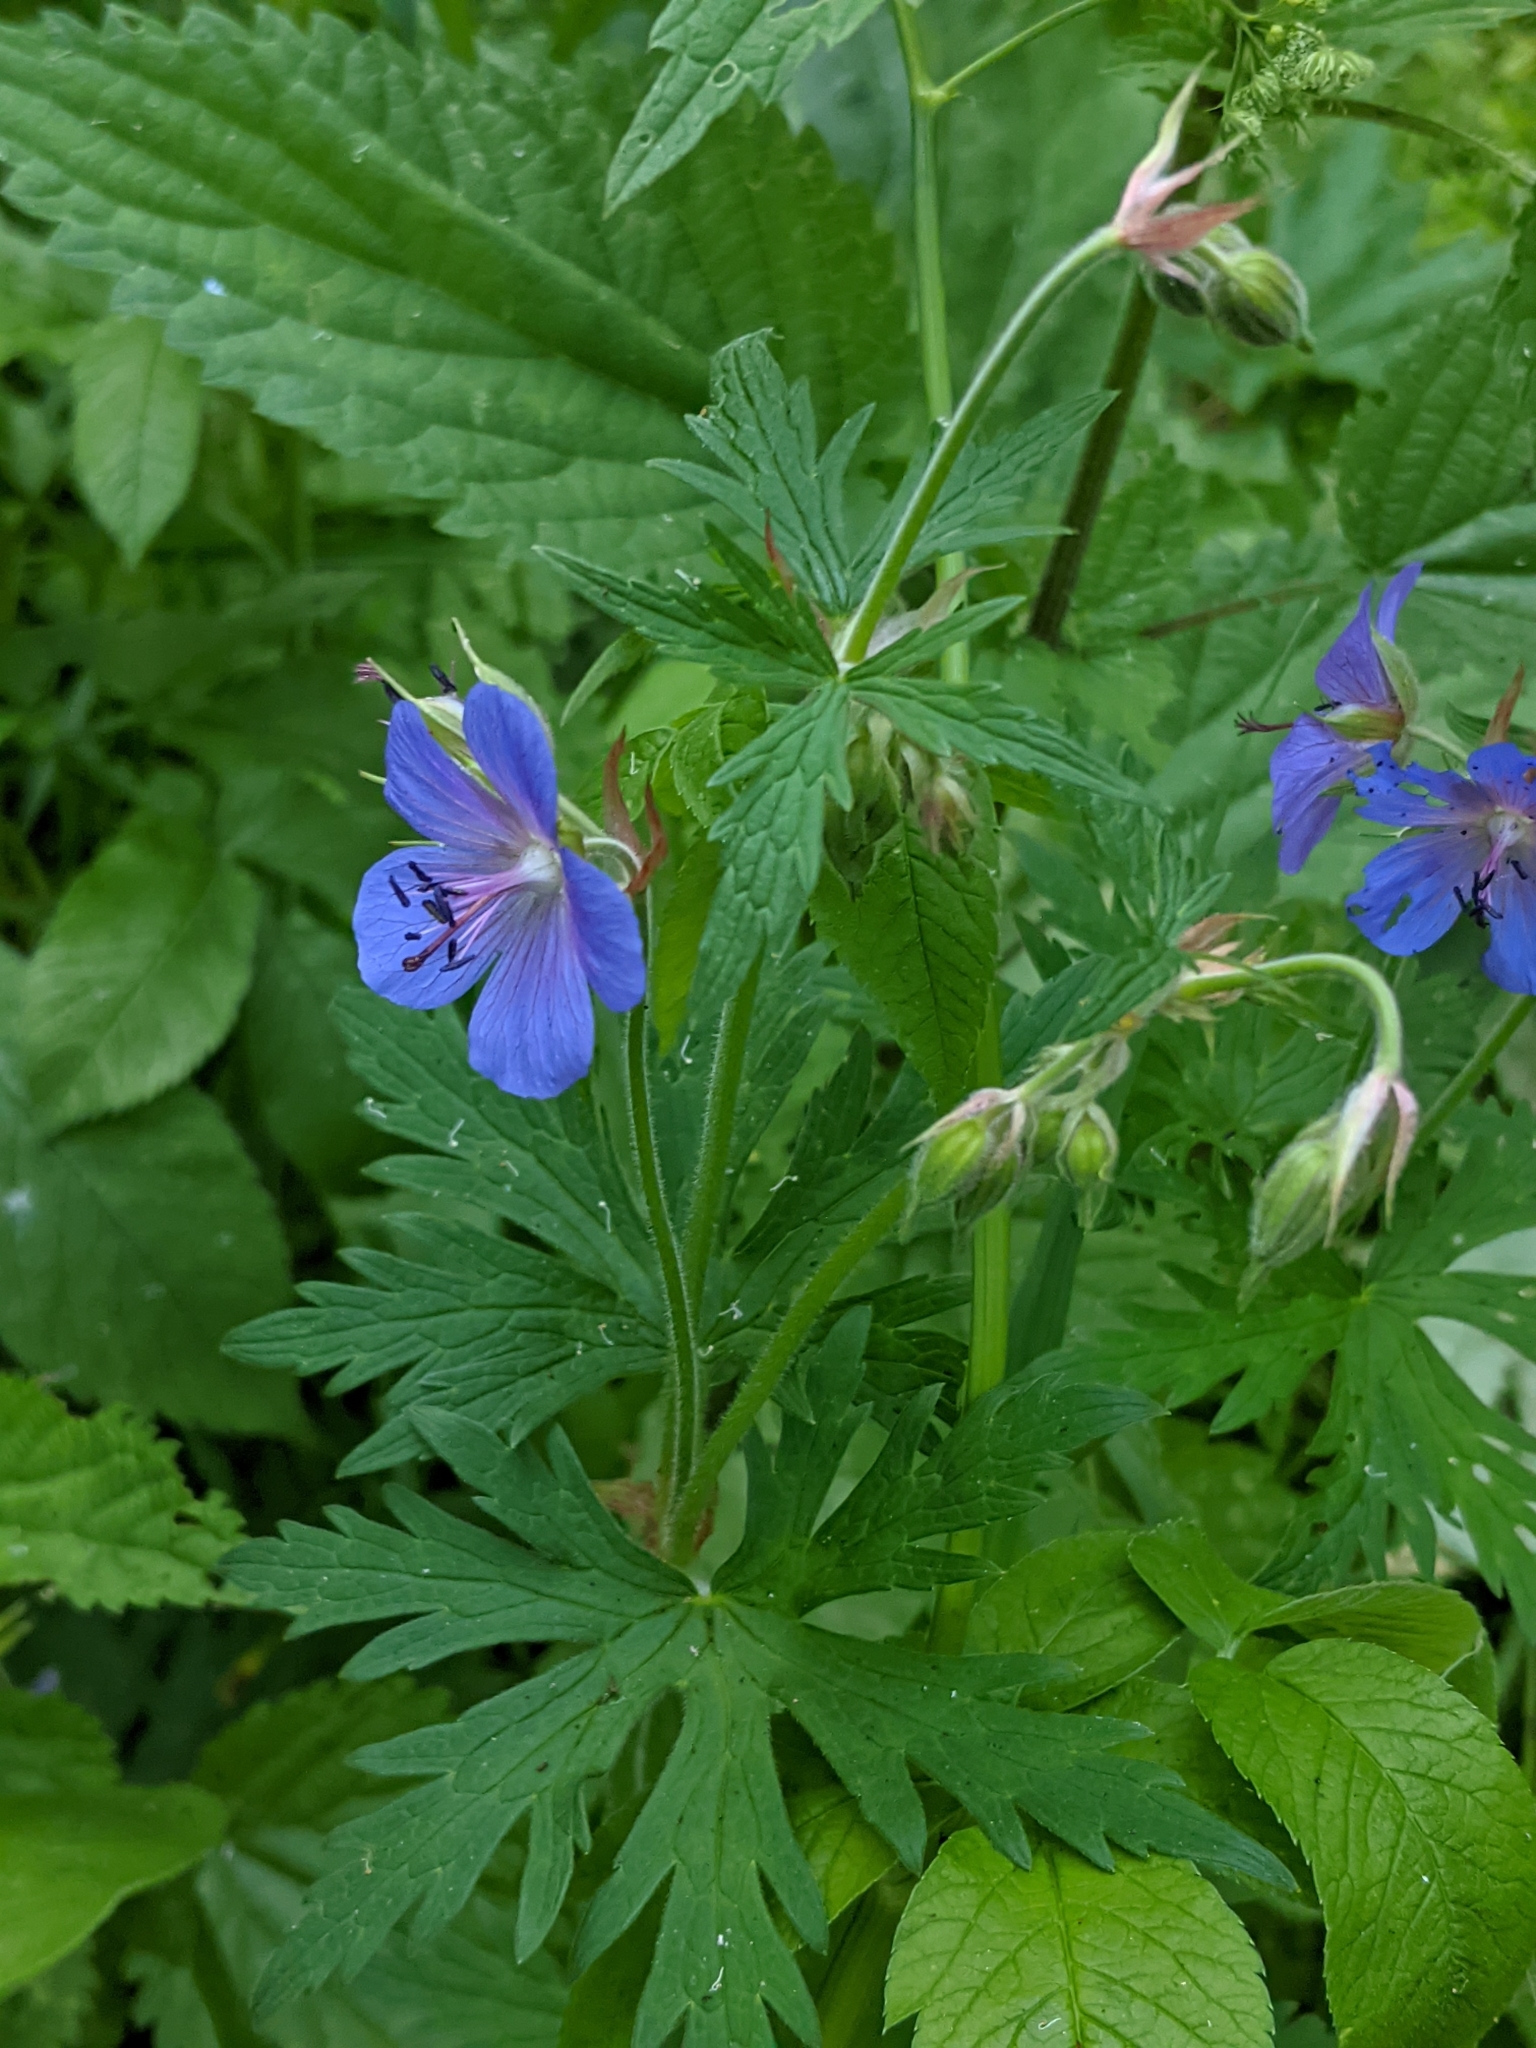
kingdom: Plantae
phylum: Tracheophyta
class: Magnoliopsida
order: Geraniales
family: Geraniaceae
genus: Geranium
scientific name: Geranium pratense
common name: Meadow crane's-bill
